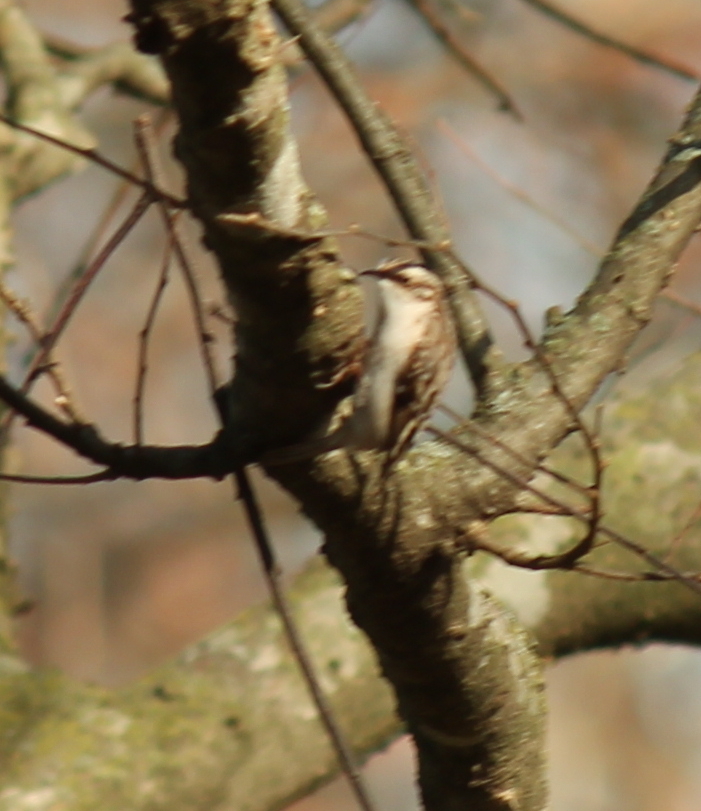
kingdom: Animalia
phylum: Chordata
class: Aves
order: Passeriformes
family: Certhiidae
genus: Certhia
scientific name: Certhia americana
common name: Brown creeper
